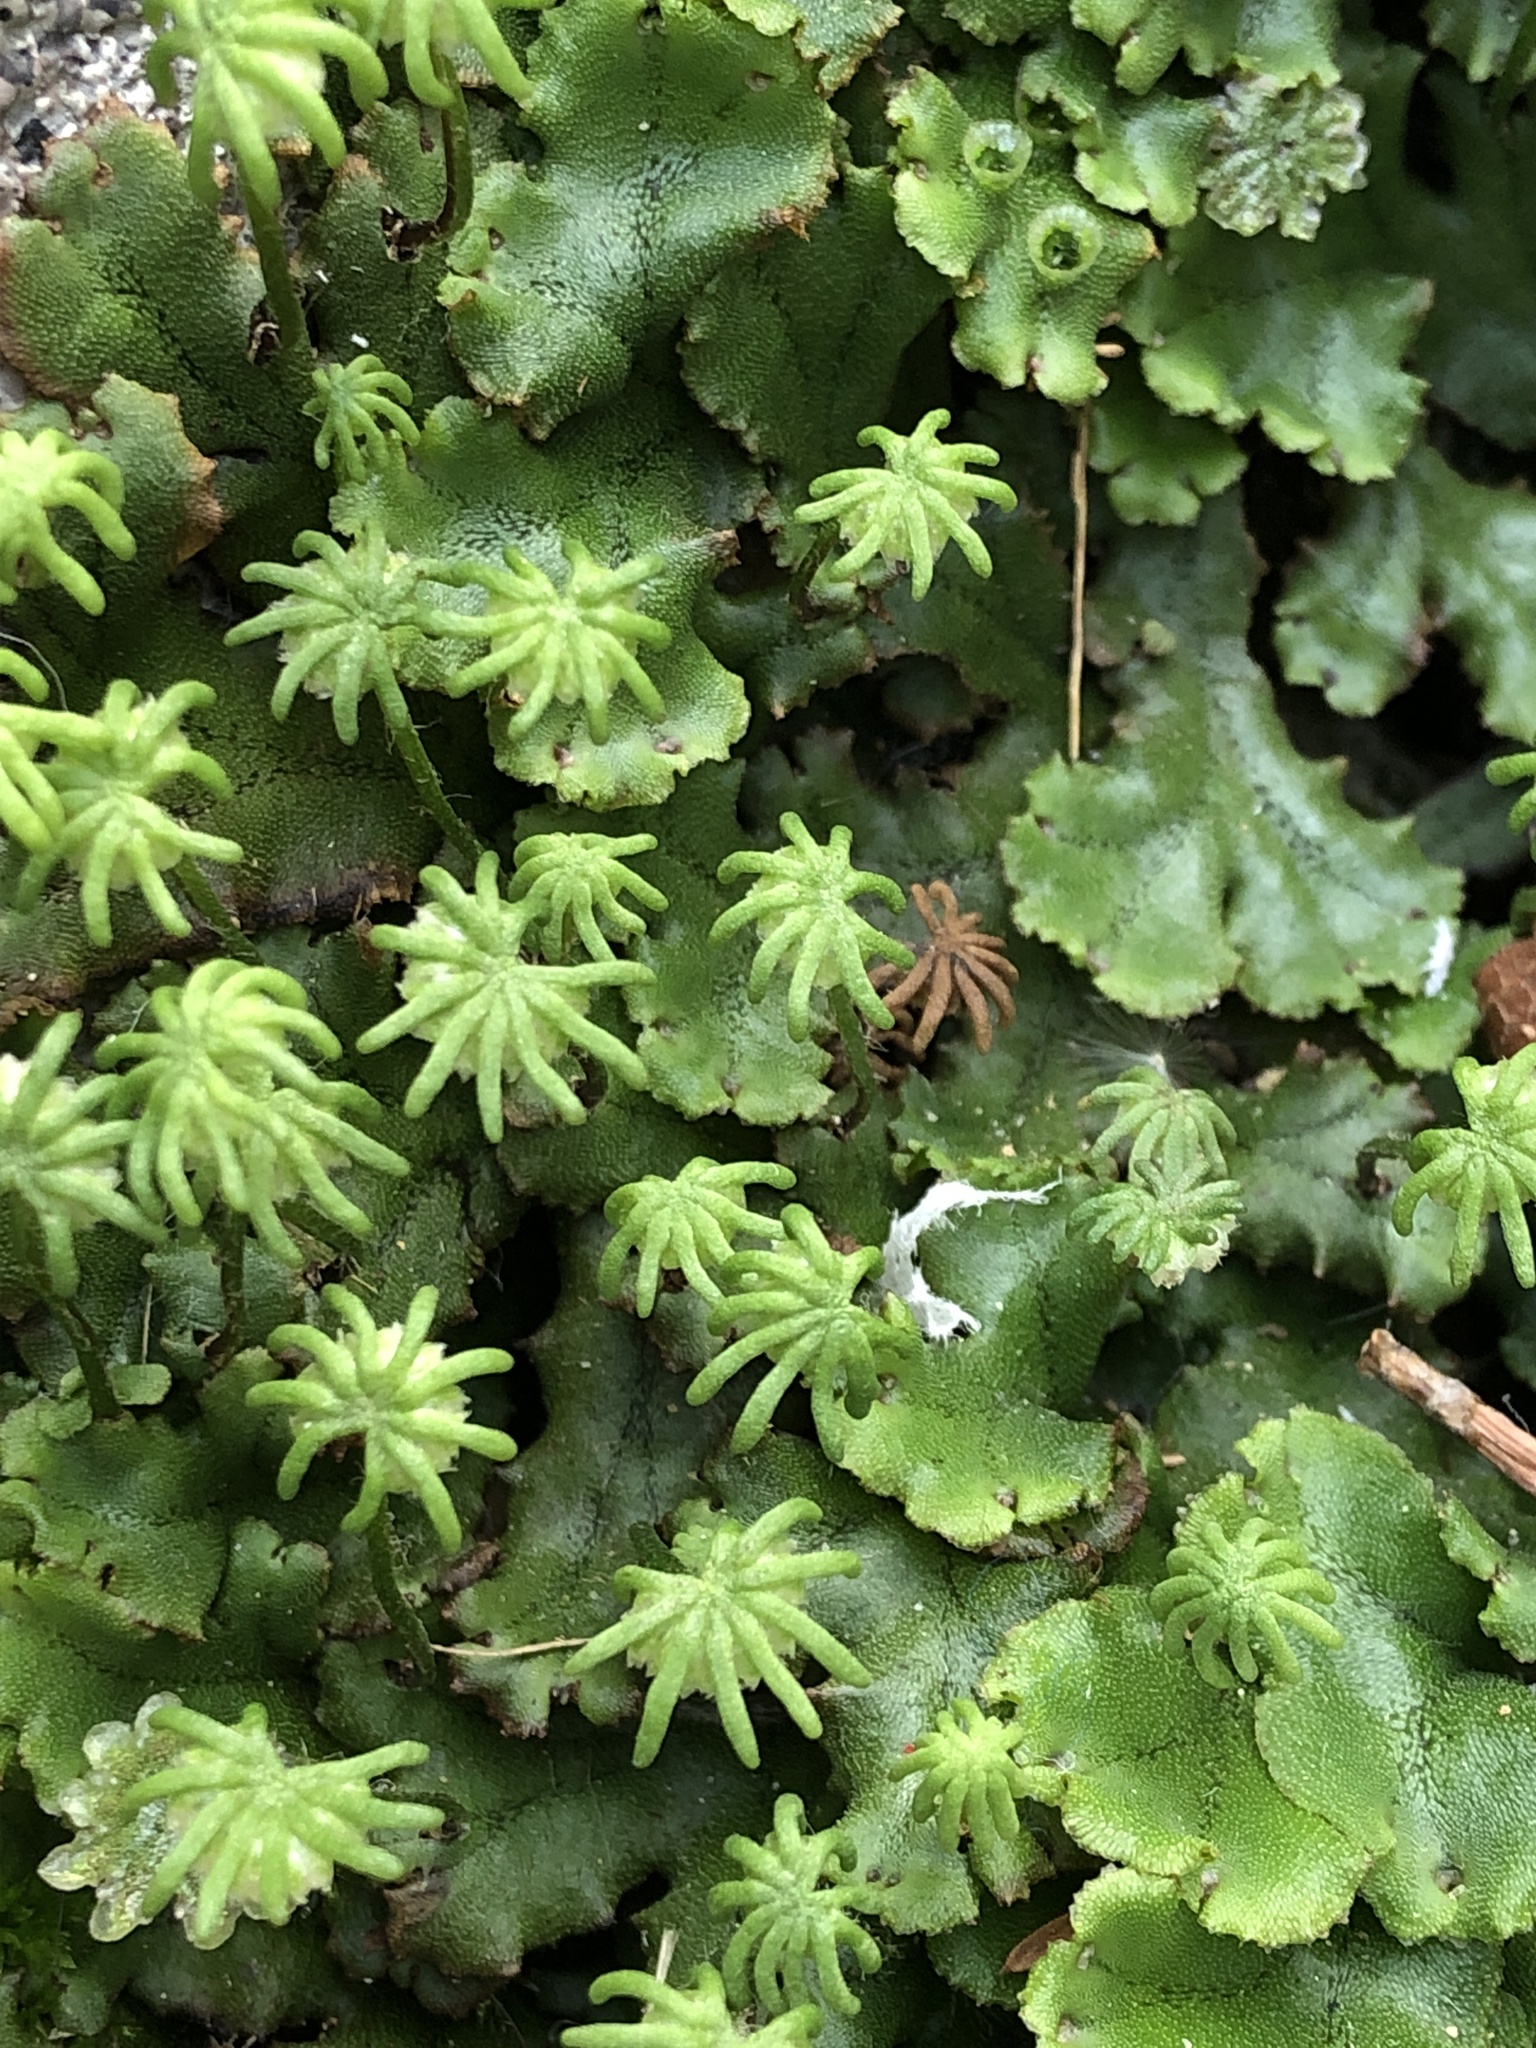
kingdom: Plantae
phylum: Marchantiophyta
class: Marchantiopsida
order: Marchantiales
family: Marchantiaceae
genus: Marchantia
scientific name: Marchantia polymorpha
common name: Common liverwort
